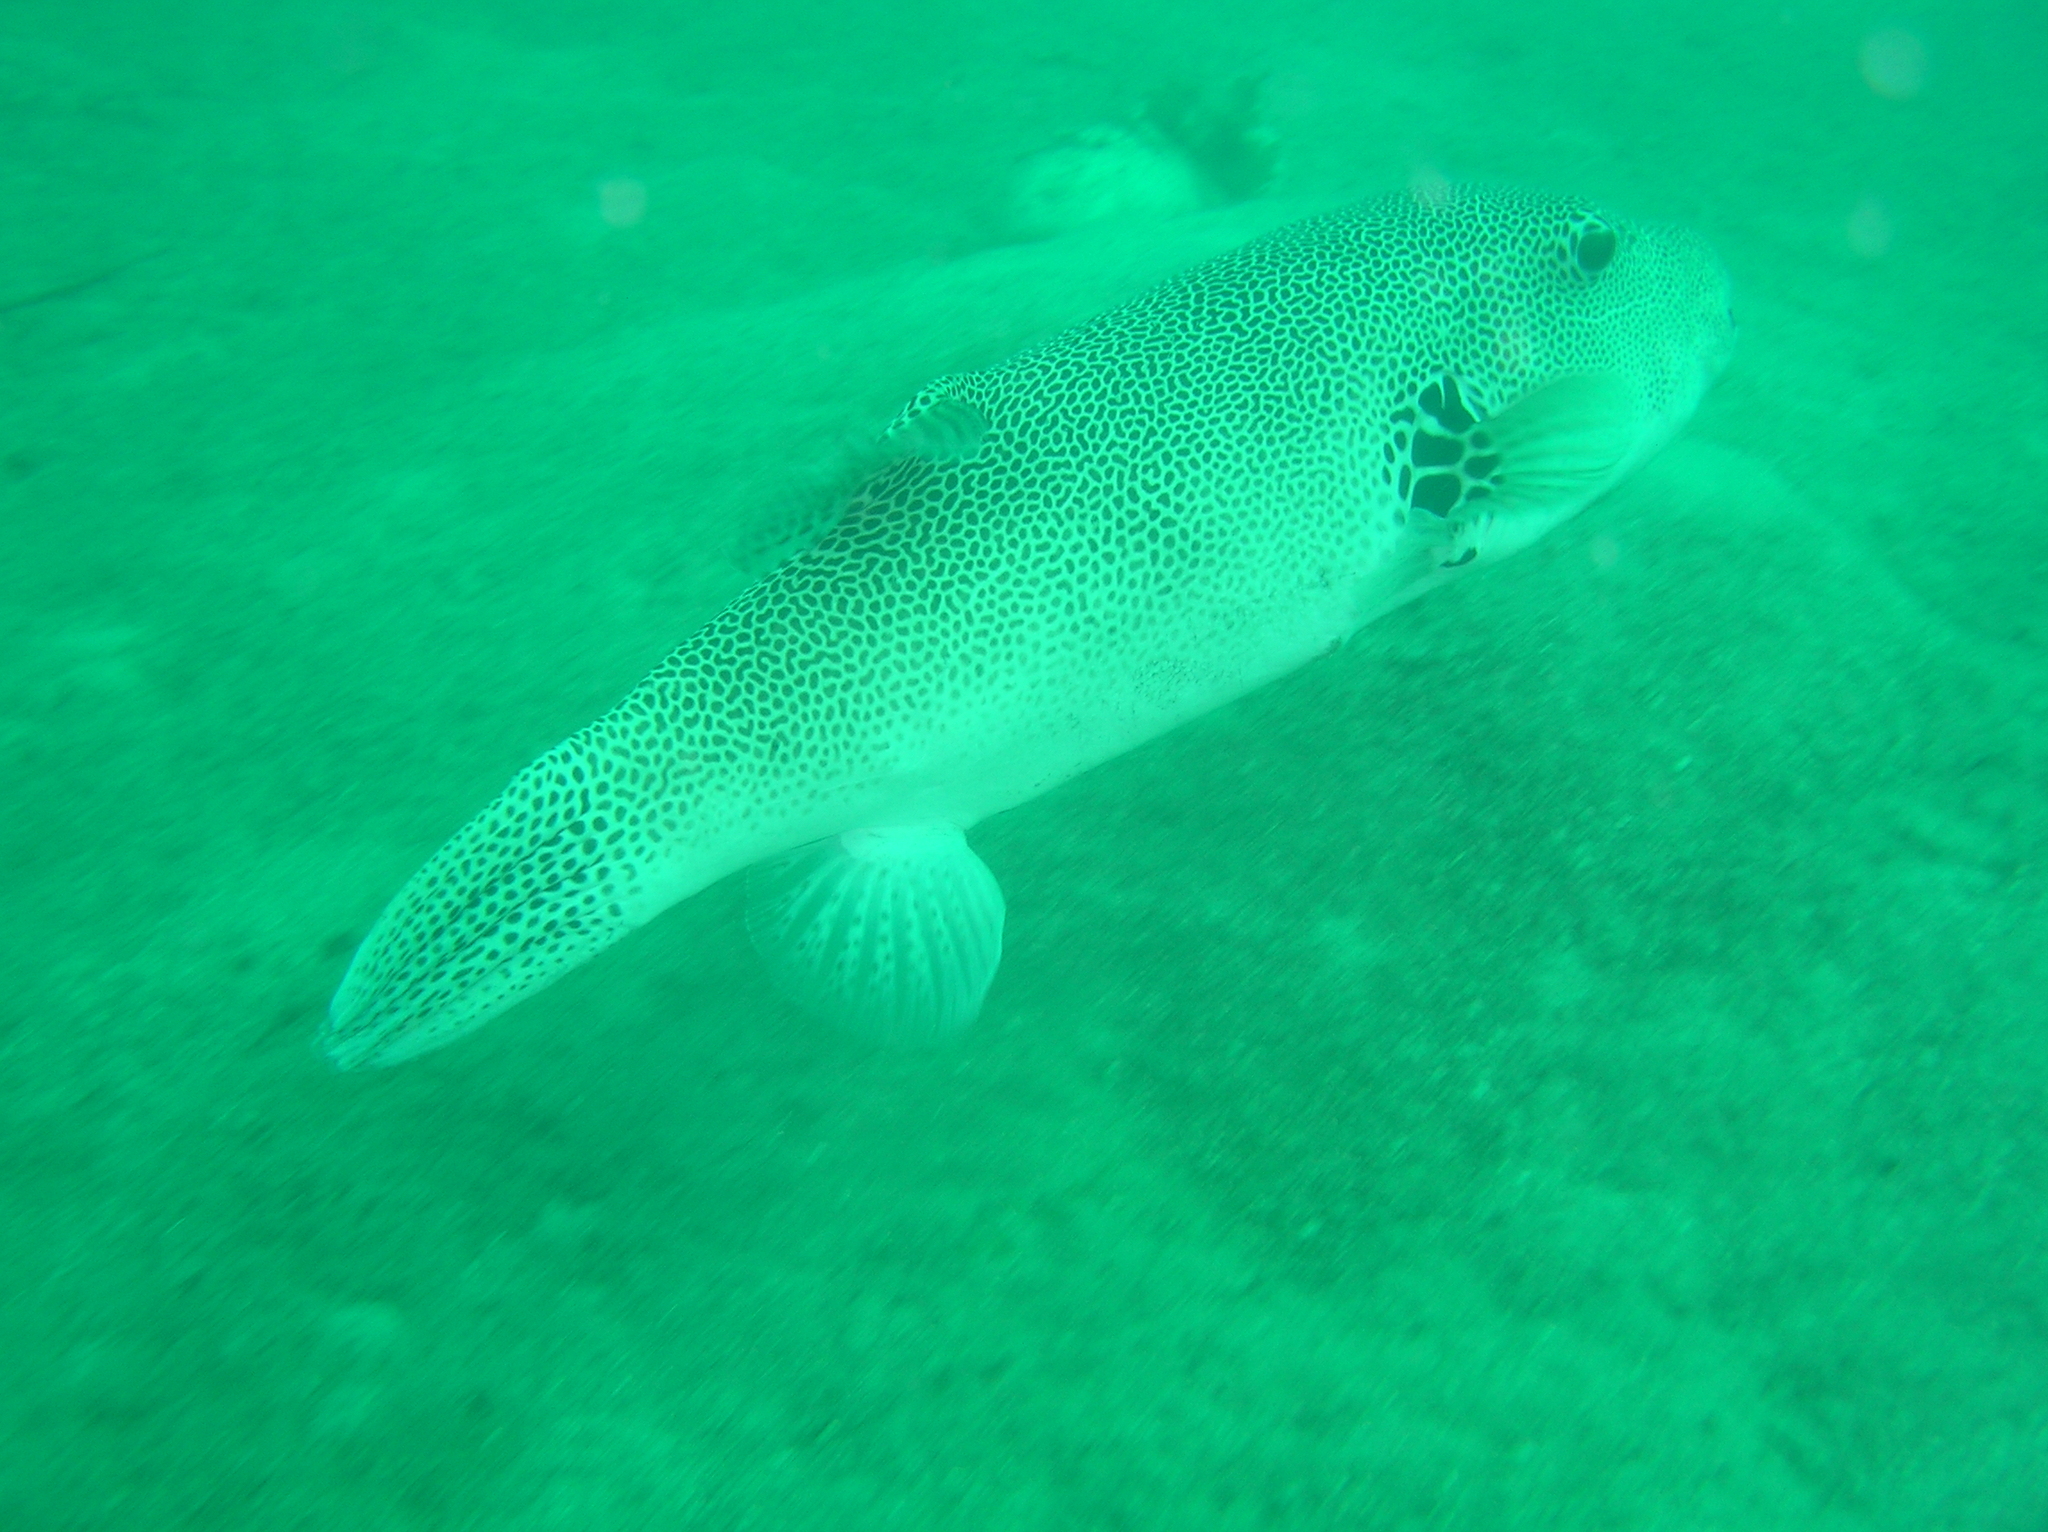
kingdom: Animalia
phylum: Chordata
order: Tetraodontiformes
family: Tetraodontidae
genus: Arothron
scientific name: Arothron stellatus
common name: Star blaasop
